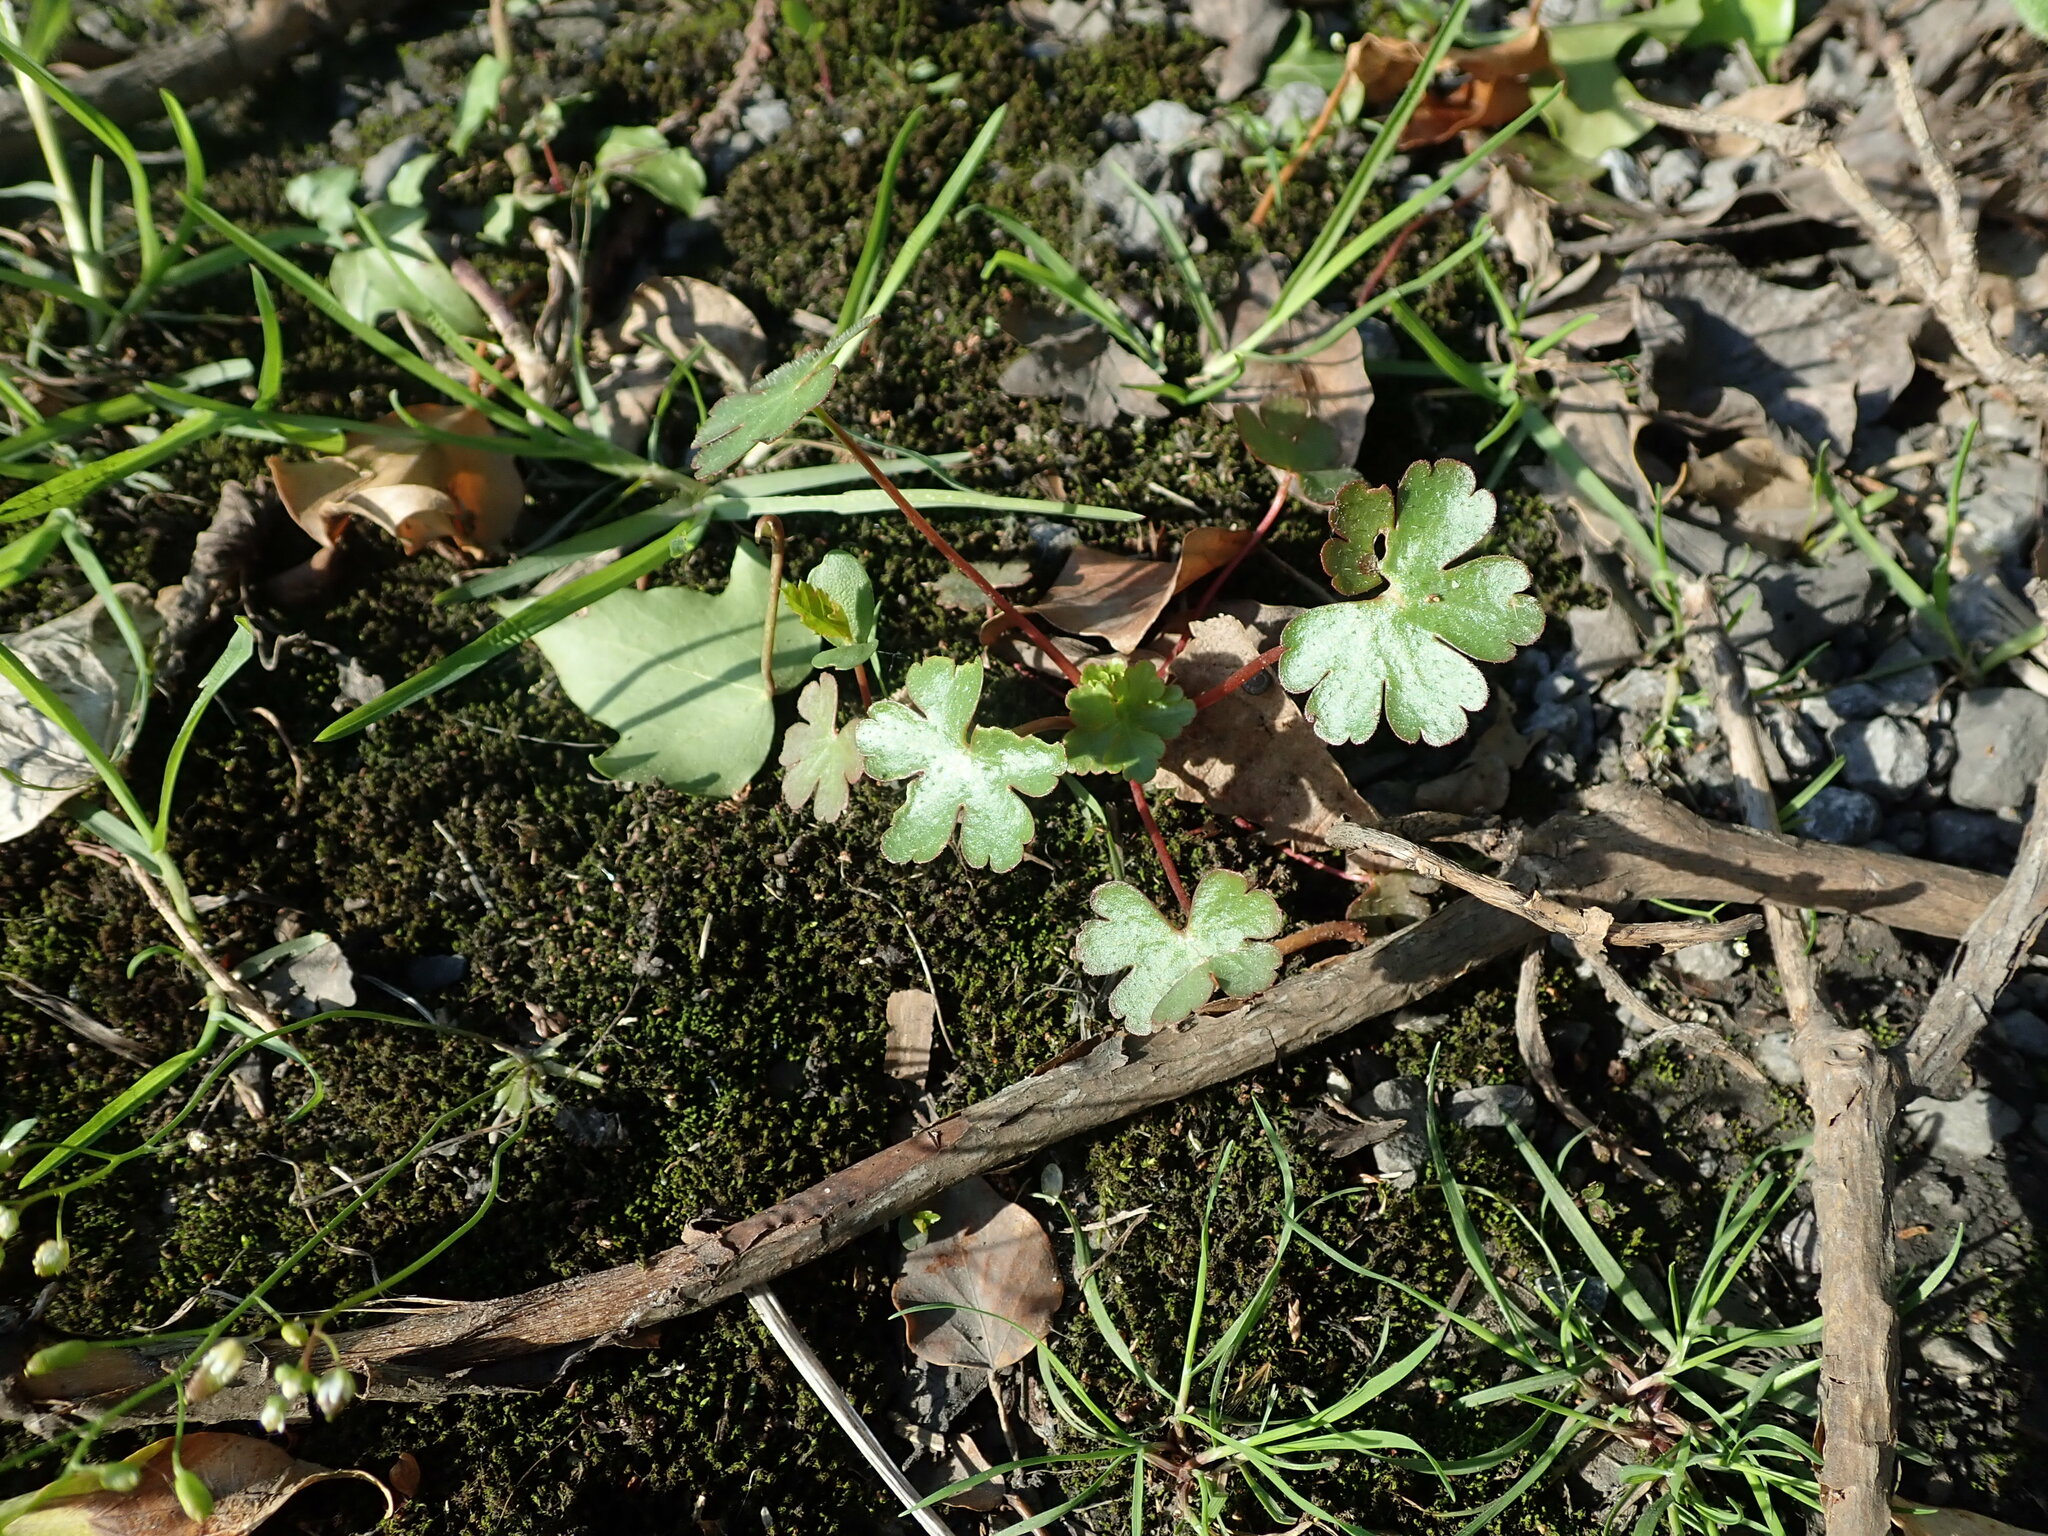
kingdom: Plantae
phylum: Tracheophyta
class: Magnoliopsida
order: Geraniales
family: Geraniaceae
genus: Geranium
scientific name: Geranium lucidum
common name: Shining crane's-bill
